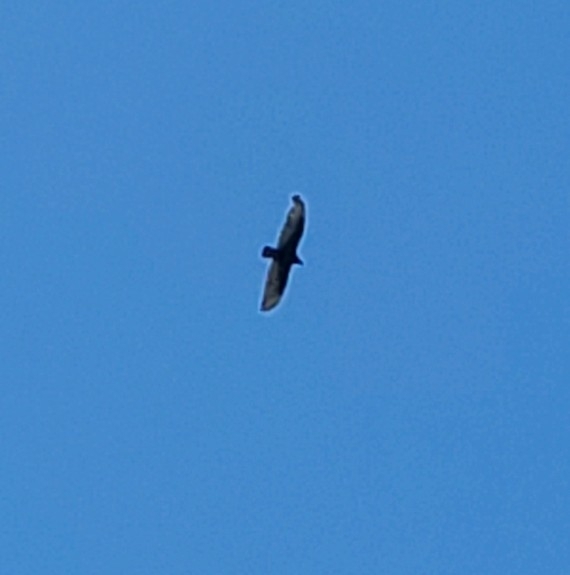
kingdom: Animalia
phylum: Chordata
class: Aves
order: Accipitriformes
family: Cathartidae
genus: Cathartes
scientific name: Cathartes aura
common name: Turkey vulture
